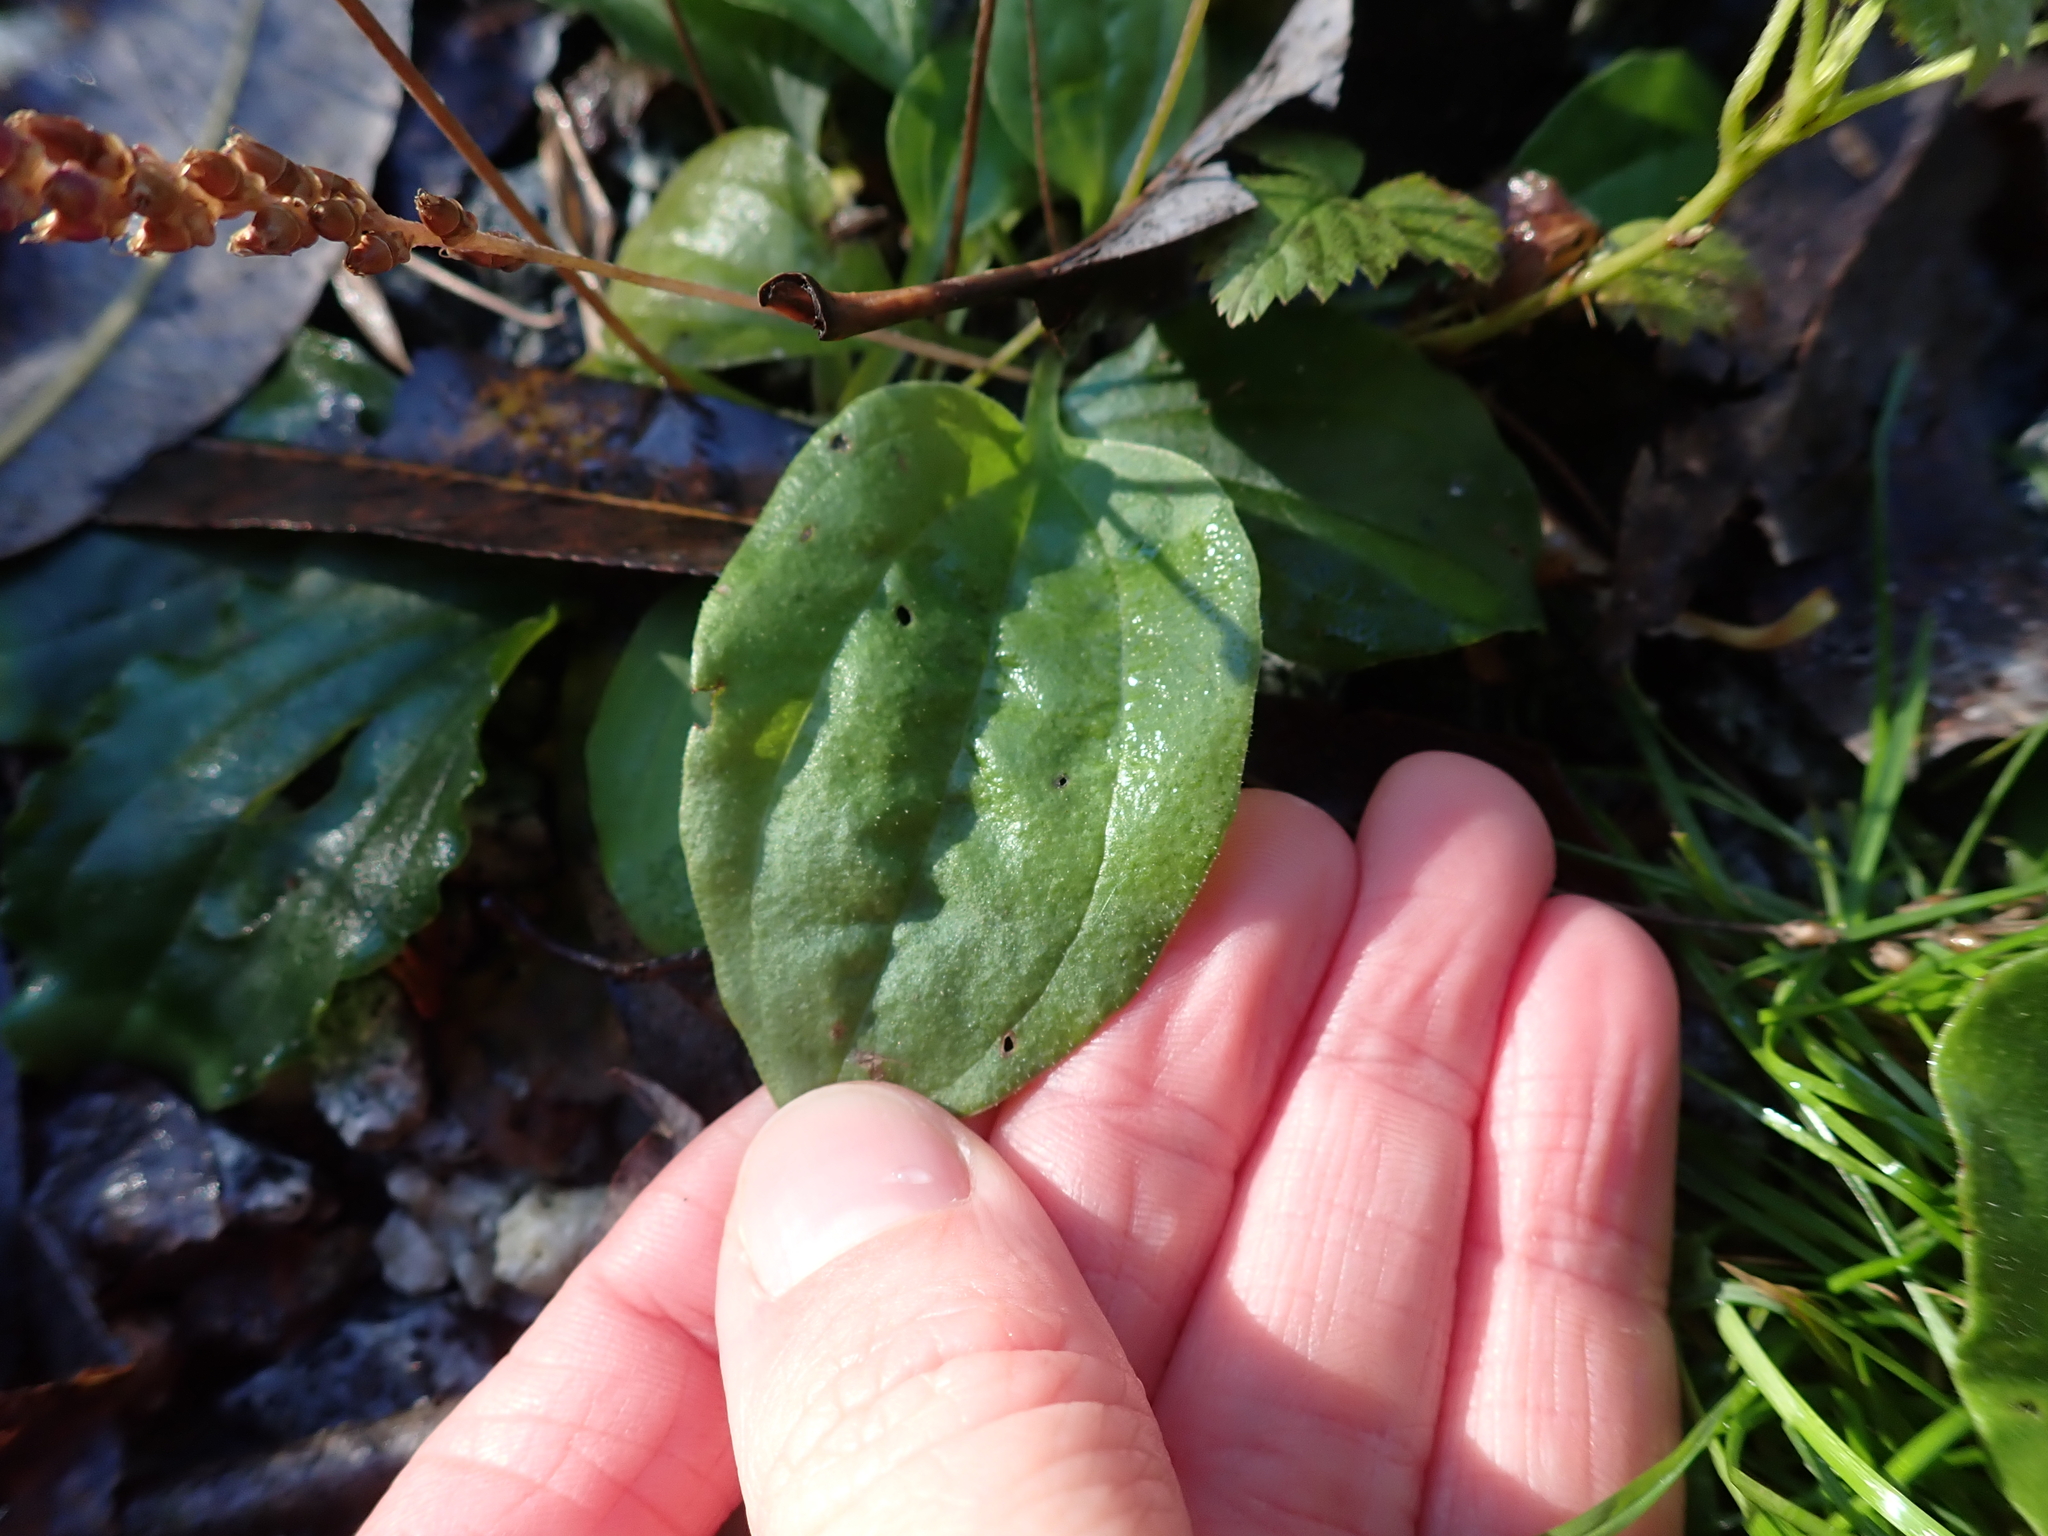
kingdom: Plantae
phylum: Tracheophyta
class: Magnoliopsida
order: Lamiales
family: Plantaginaceae
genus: Plantago
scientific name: Plantago major
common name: Common plantain
